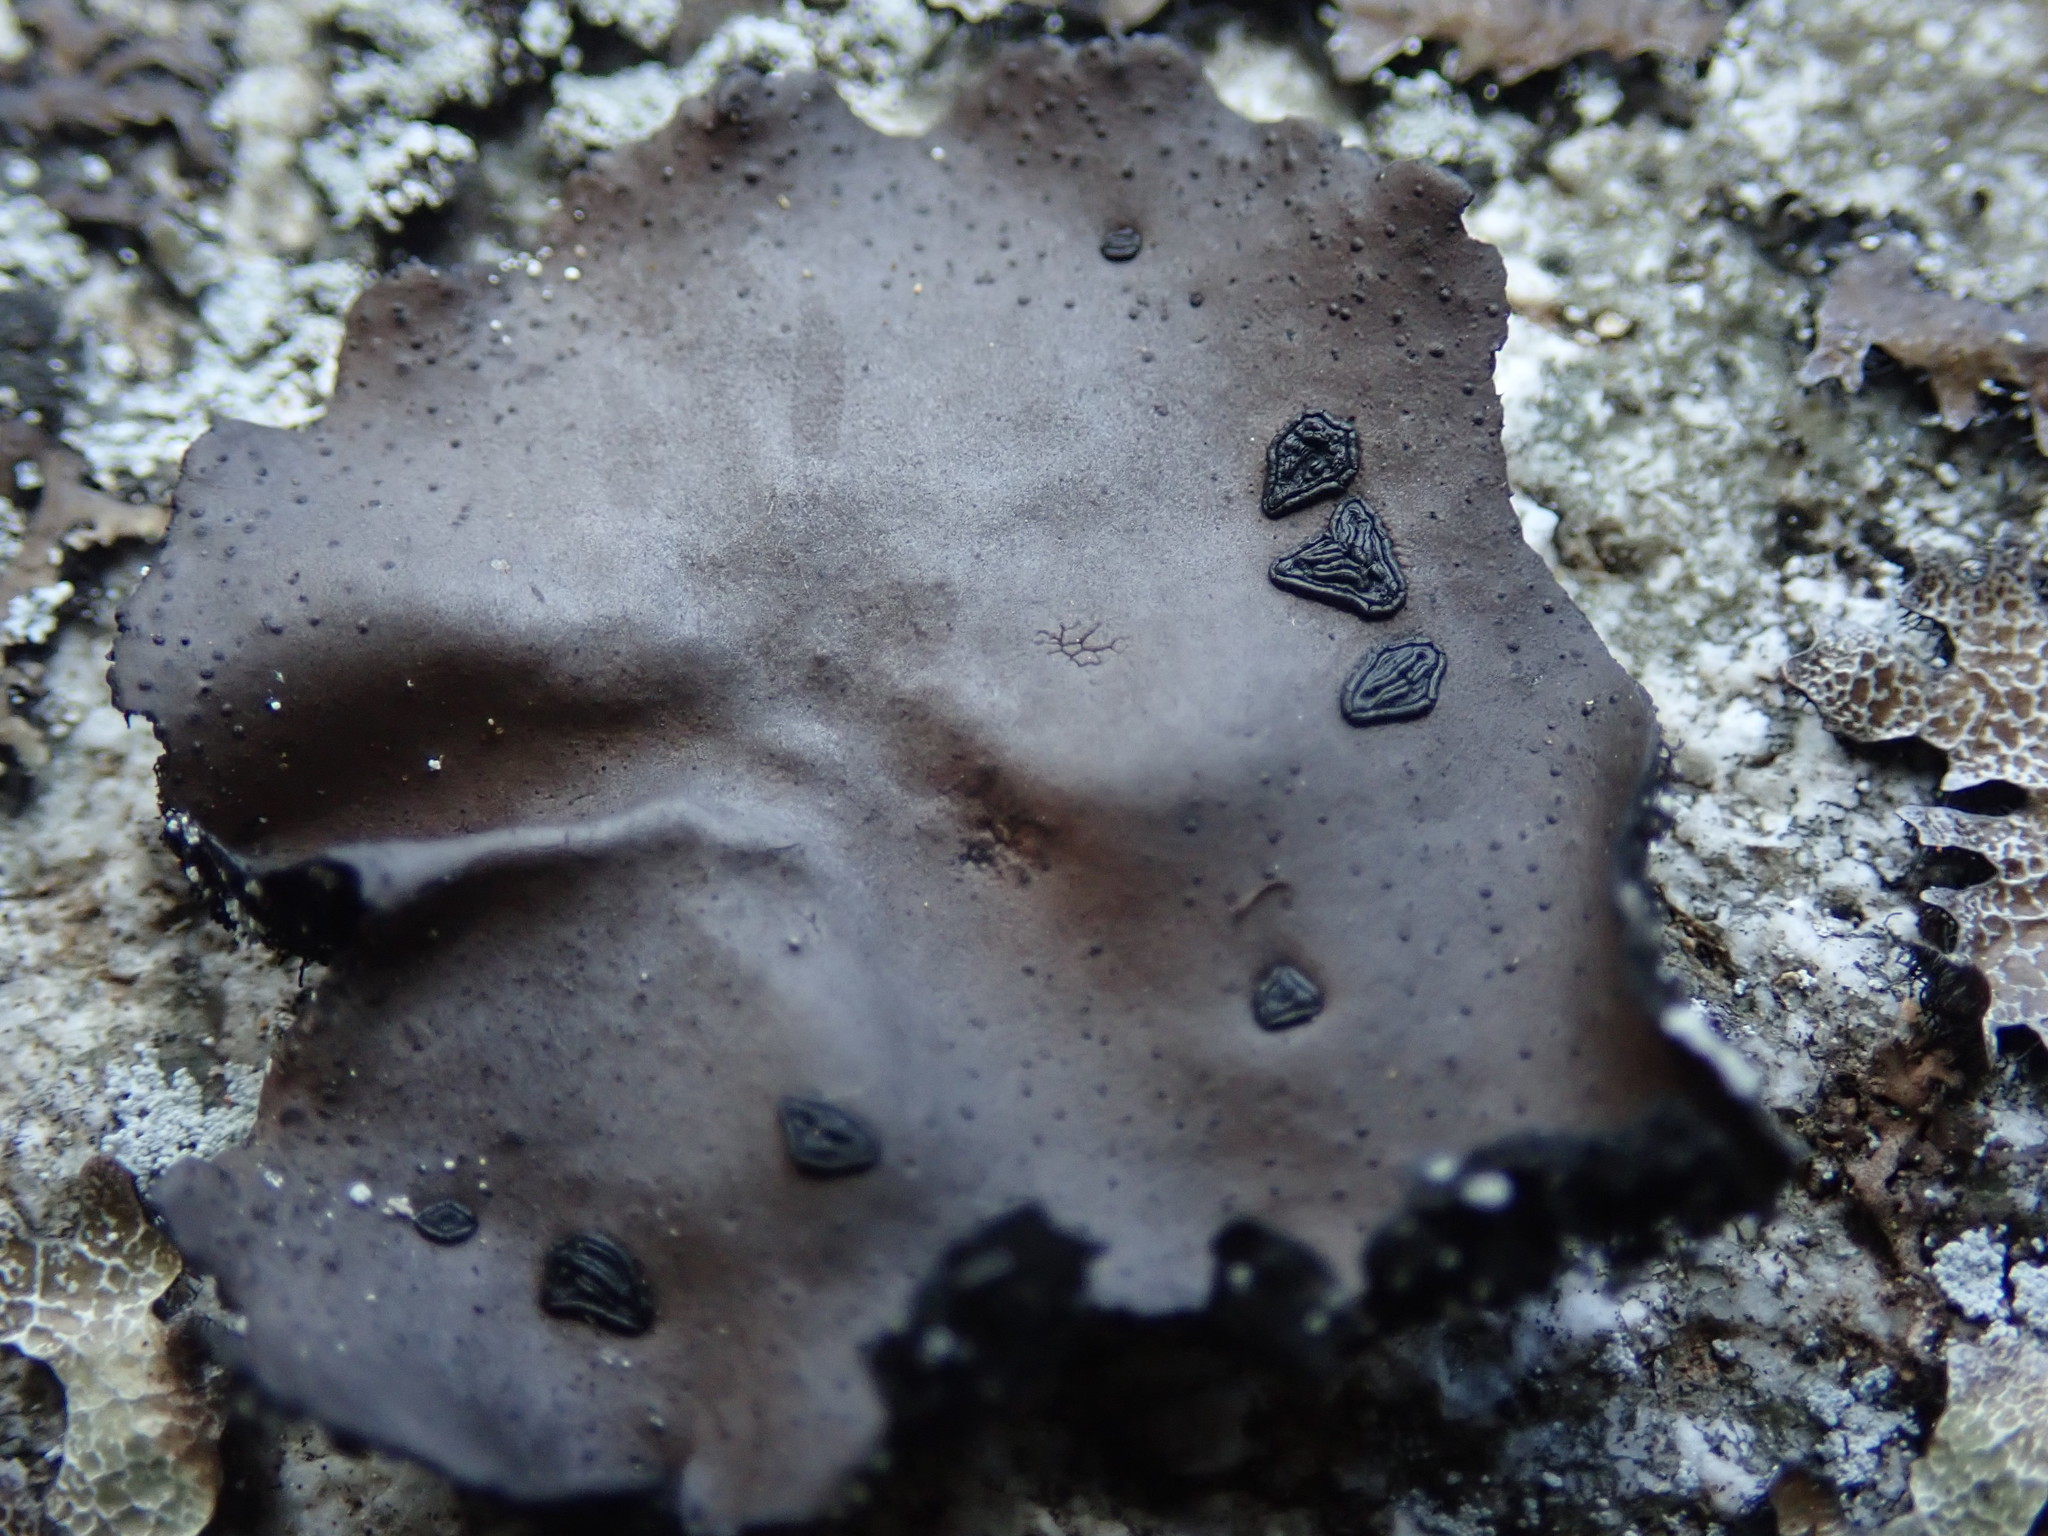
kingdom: Fungi
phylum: Ascomycota
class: Lecanoromycetes
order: Umbilicariales
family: Umbilicariaceae
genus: Umbilicaria
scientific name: Umbilicaria angulata
